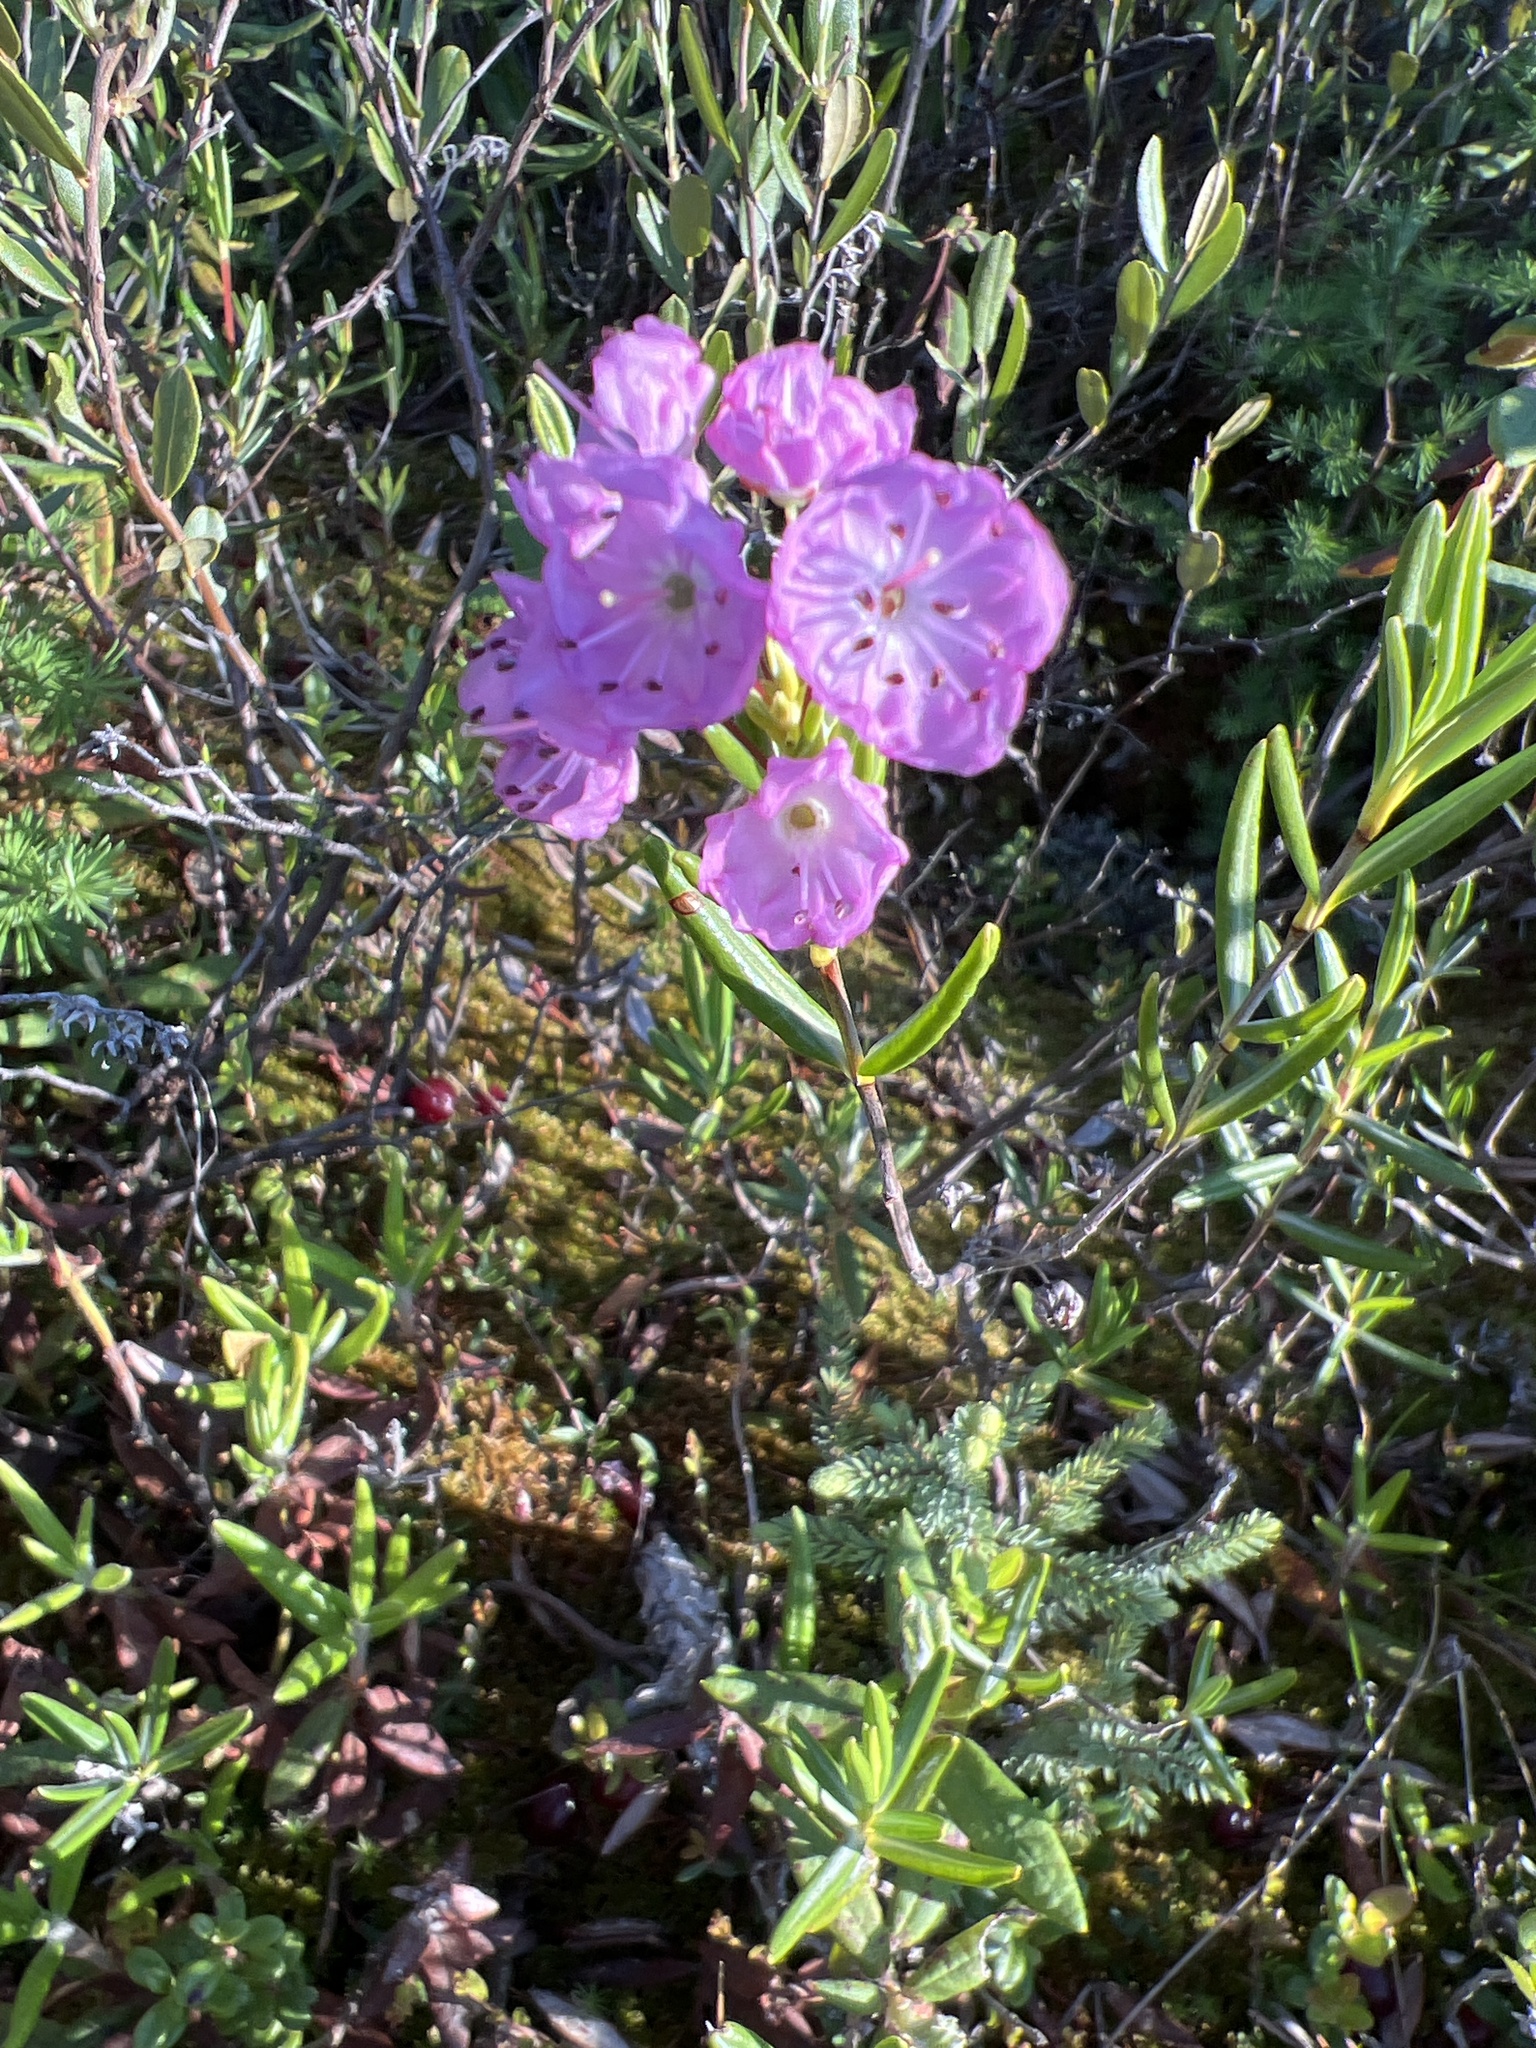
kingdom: Plantae
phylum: Tracheophyta
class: Magnoliopsida
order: Ericales
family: Ericaceae
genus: Kalmia
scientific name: Kalmia polifolia
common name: Bog-laurel
